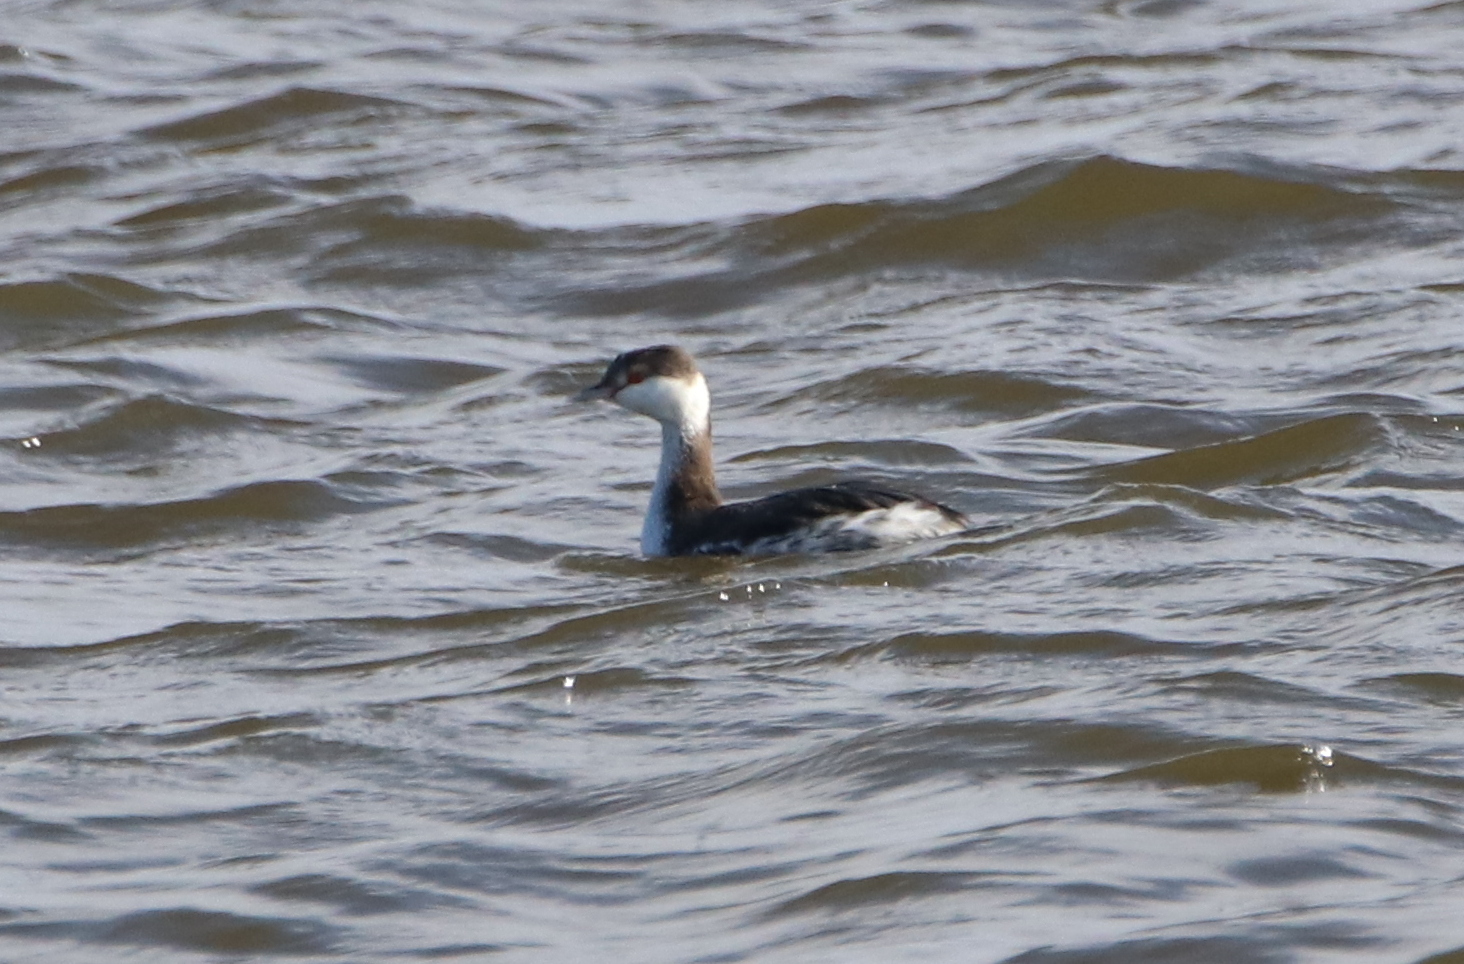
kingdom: Animalia
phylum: Chordata
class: Aves
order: Podicipediformes
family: Podicipedidae
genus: Podiceps
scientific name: Podiceps auritus
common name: Horned grebe
